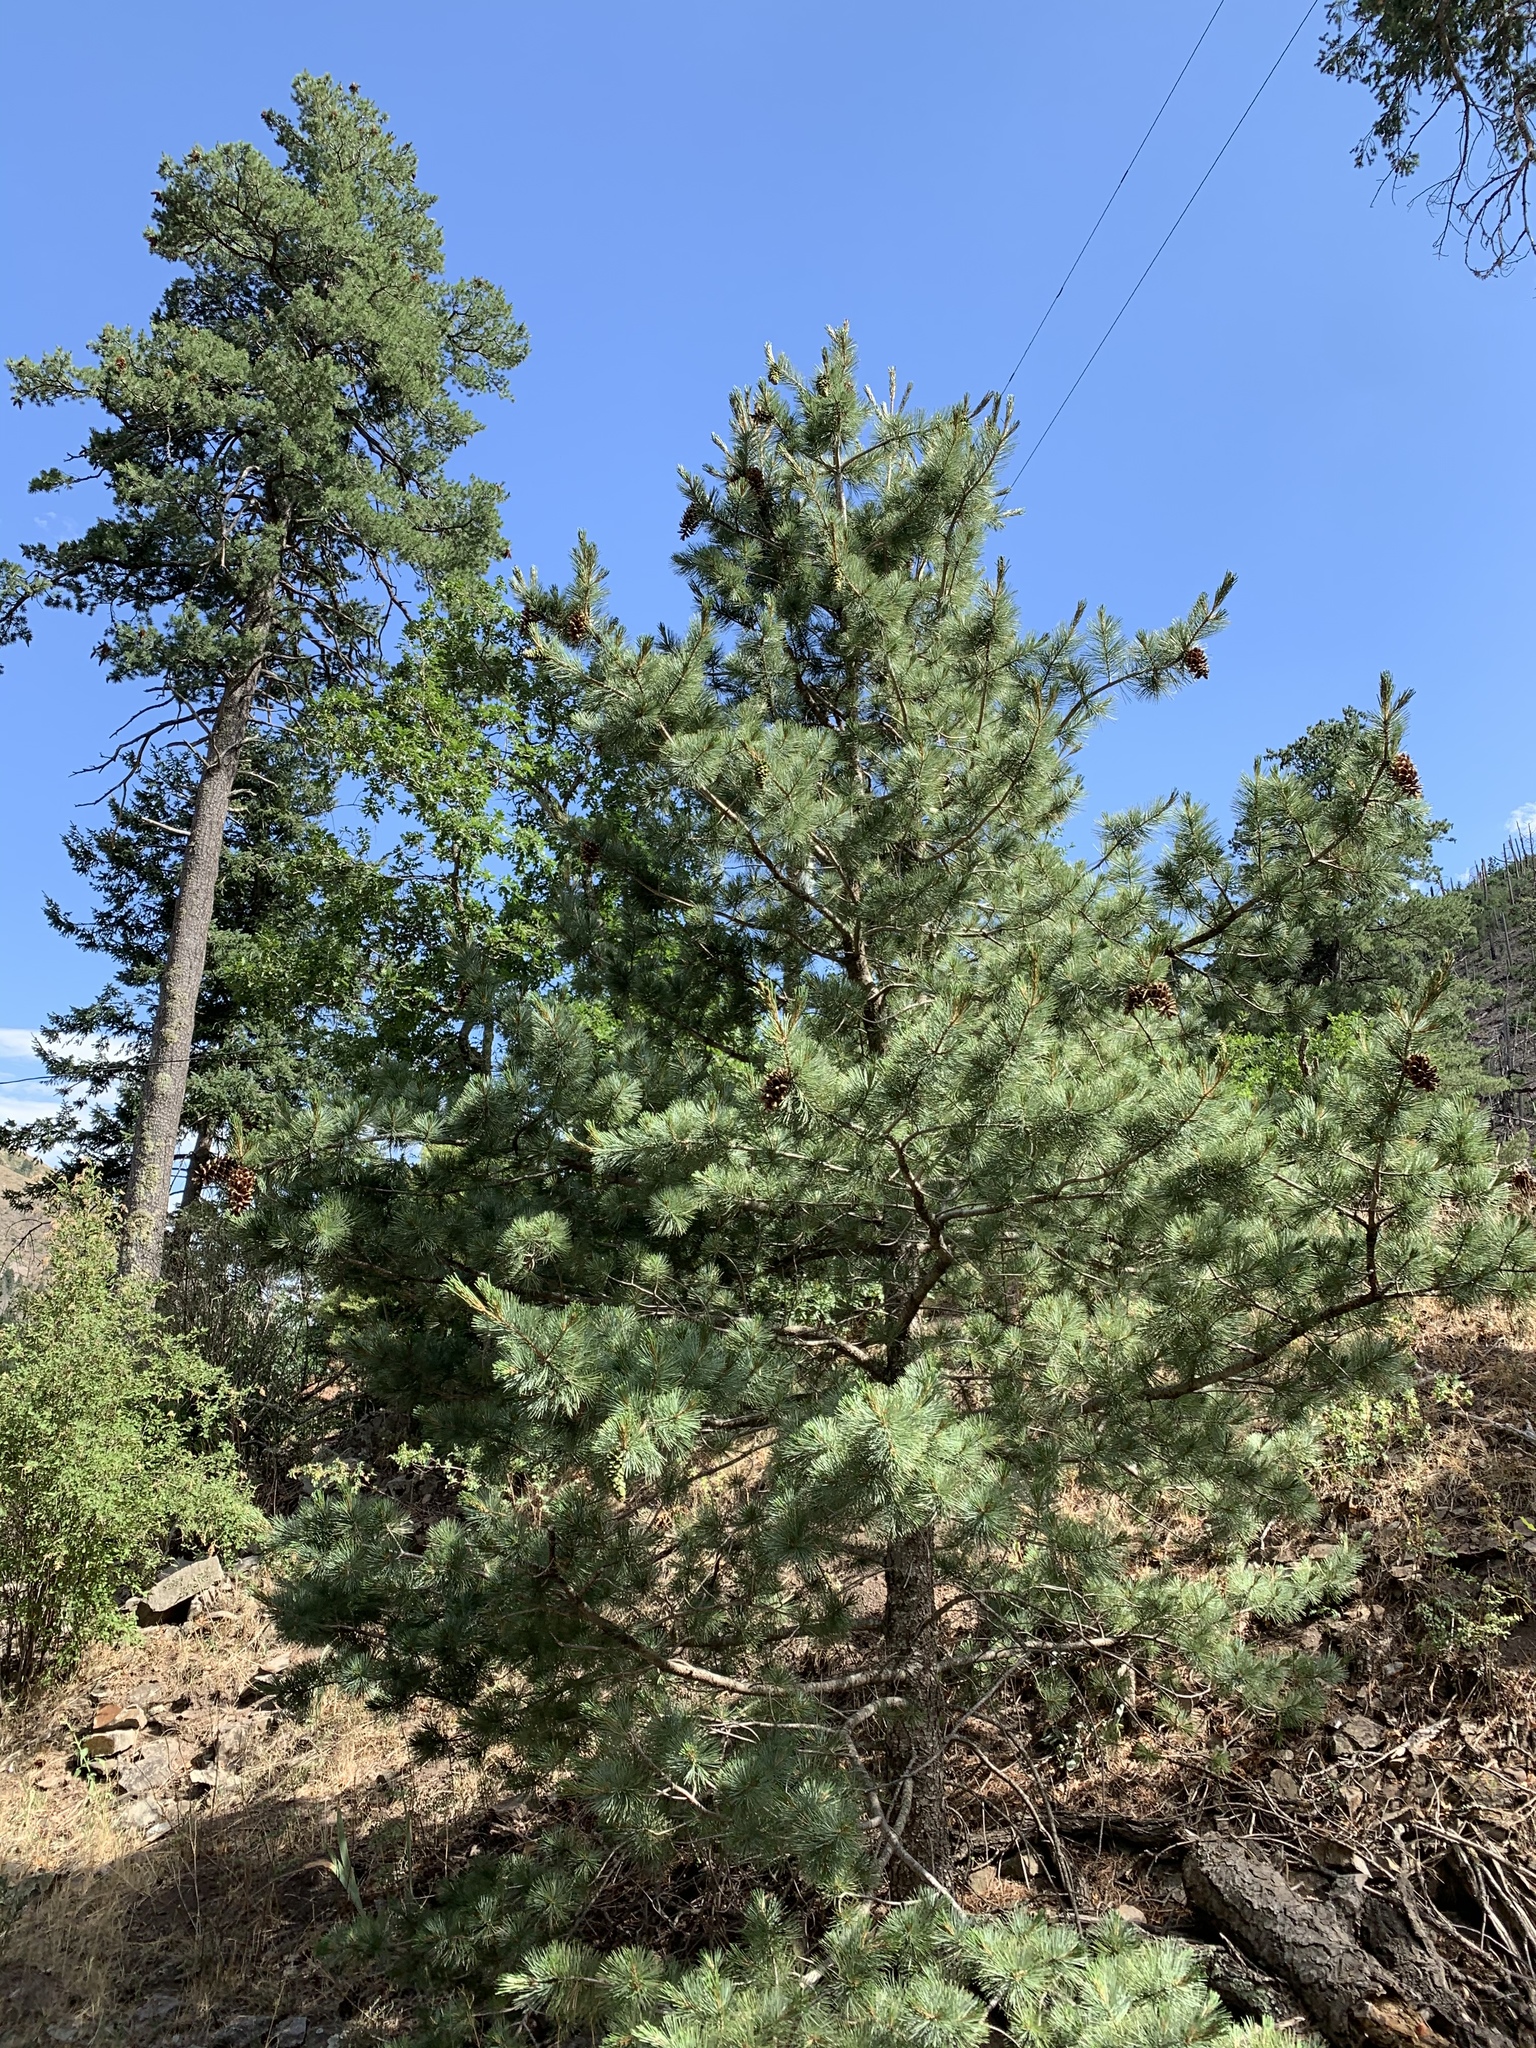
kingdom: Plantae
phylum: Tracheophyta
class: Pinopsida
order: Pinales
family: Pinaceae
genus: Pinus
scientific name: Pinus strobiformis
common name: Southwestern white pine
